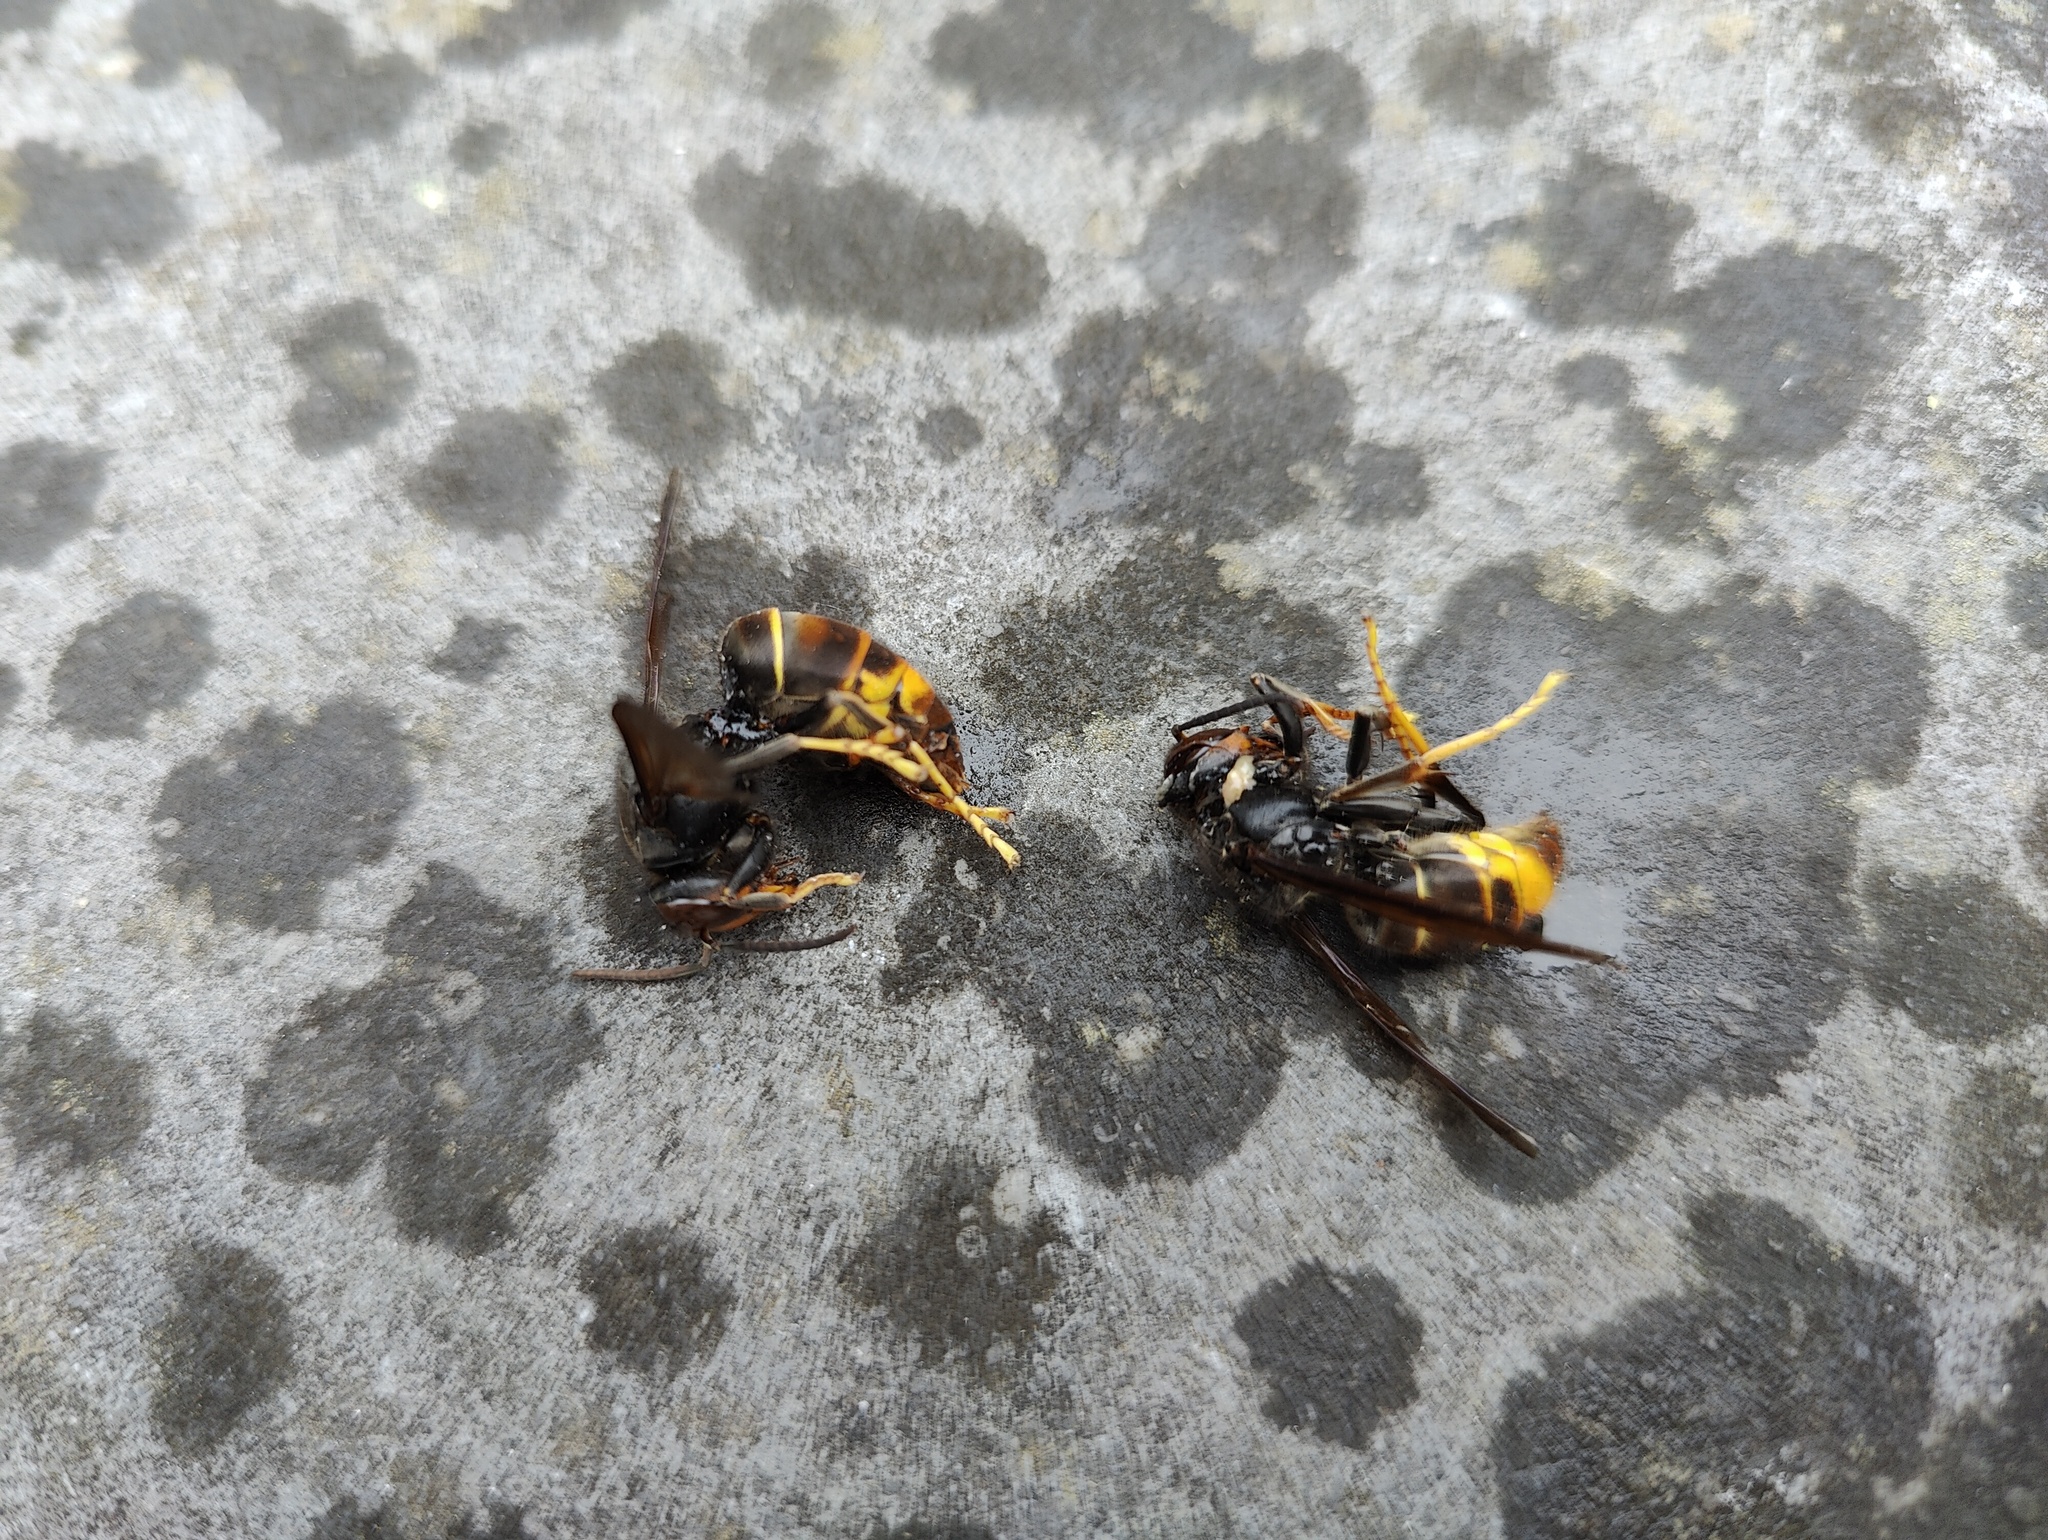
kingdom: Animalia
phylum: Arthropoda
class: Insecta
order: Hymenoptera
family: Vespidae
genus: Vespa
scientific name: Vespa velutina
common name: Asian hornet
